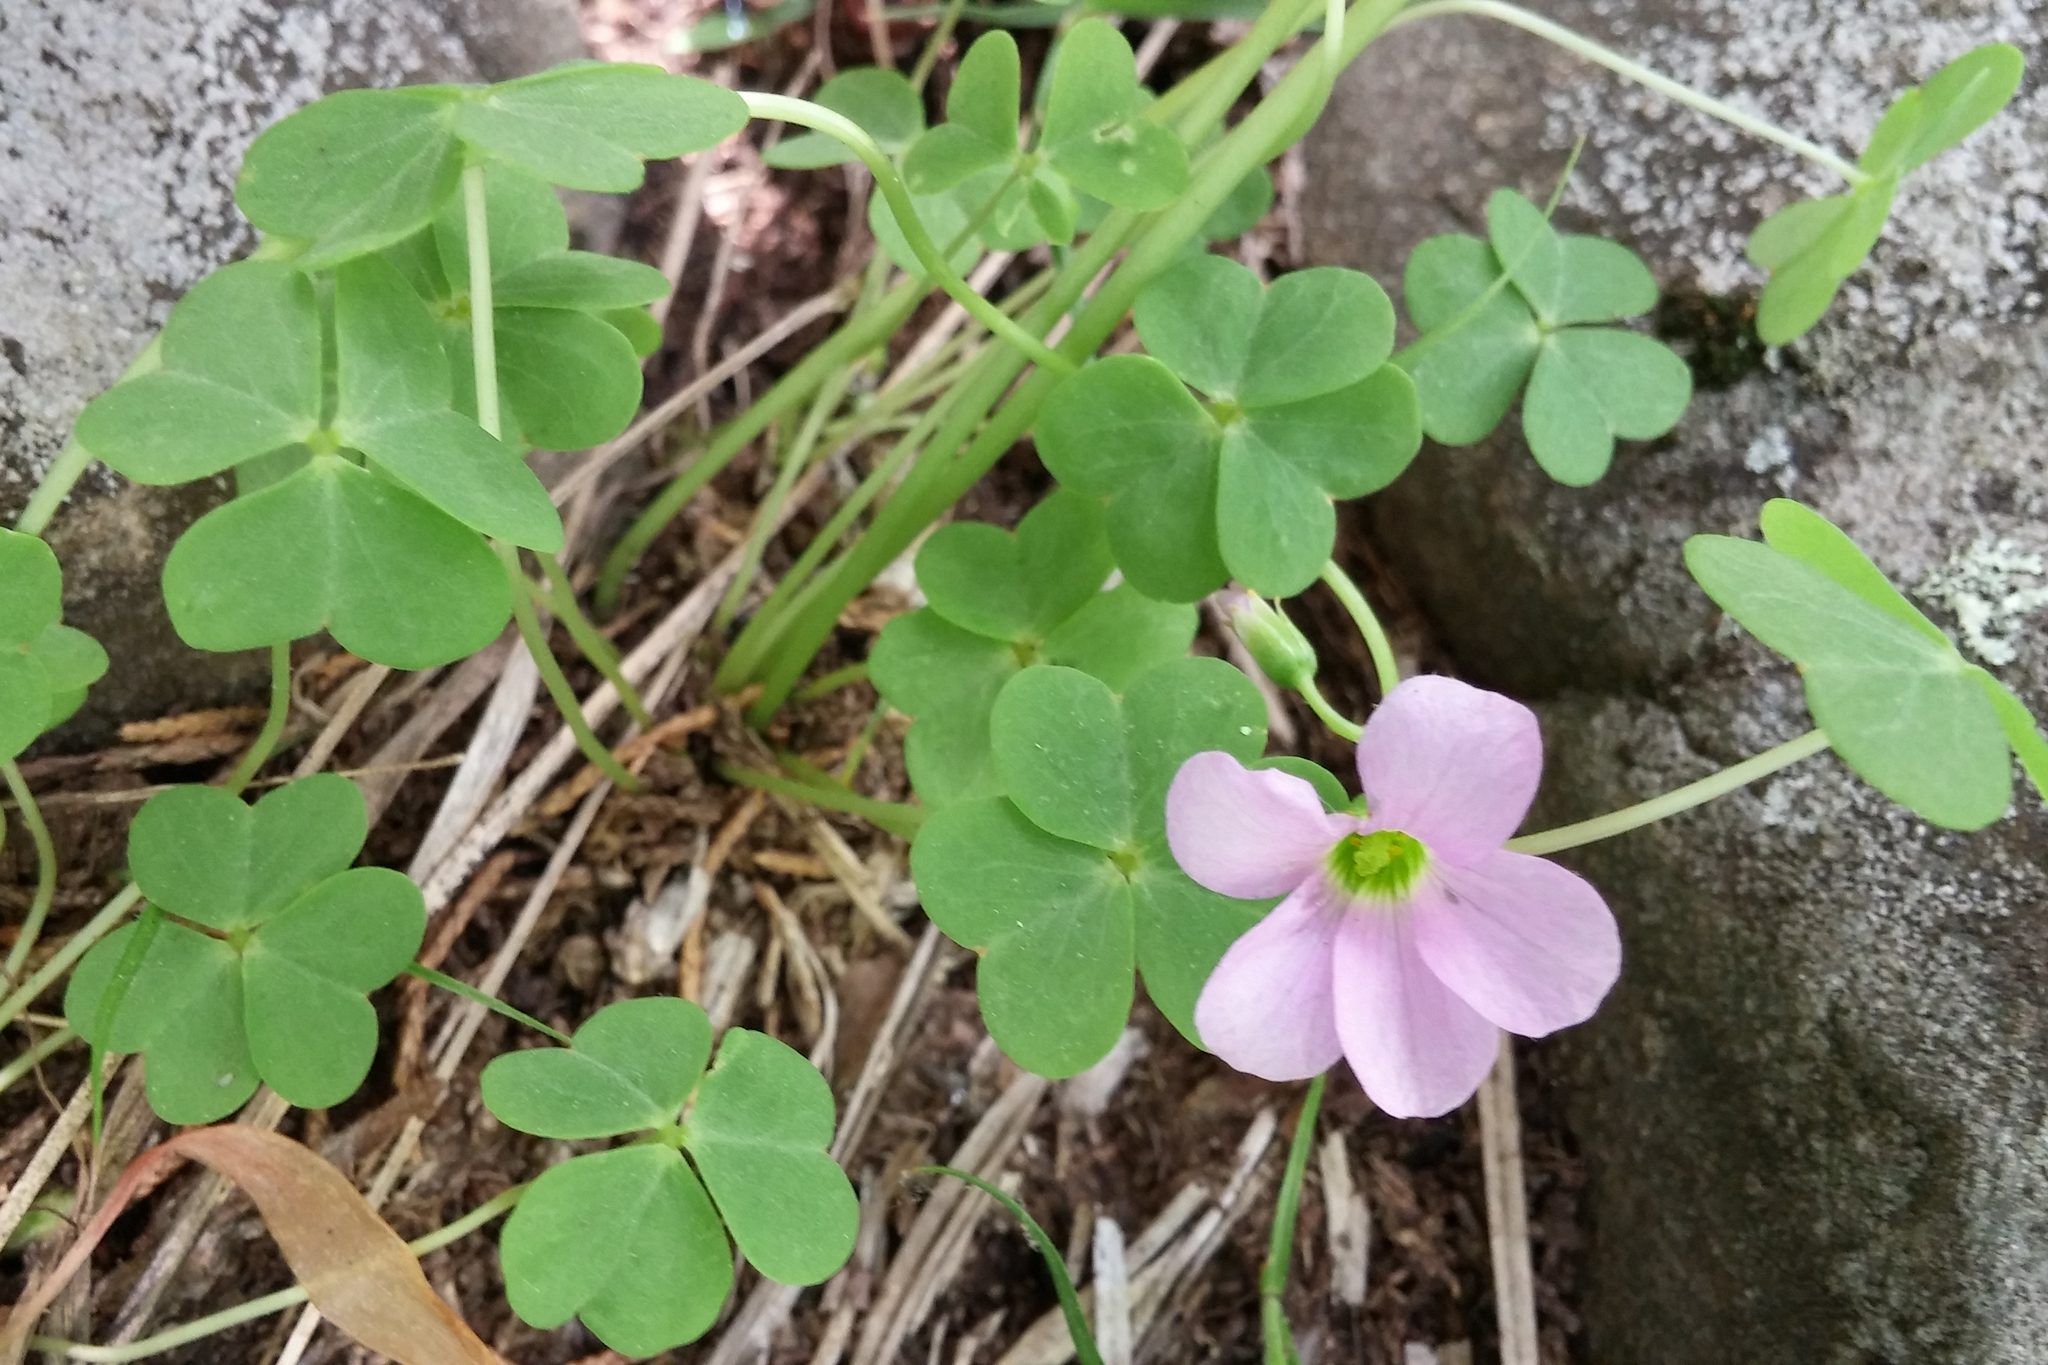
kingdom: Plantae
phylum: Tracheophyta
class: Magnoliopsida
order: Oxalidales
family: Oxalidaceae
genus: Oxalis
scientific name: Oxalis violacea
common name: Violet wood-sorrel
